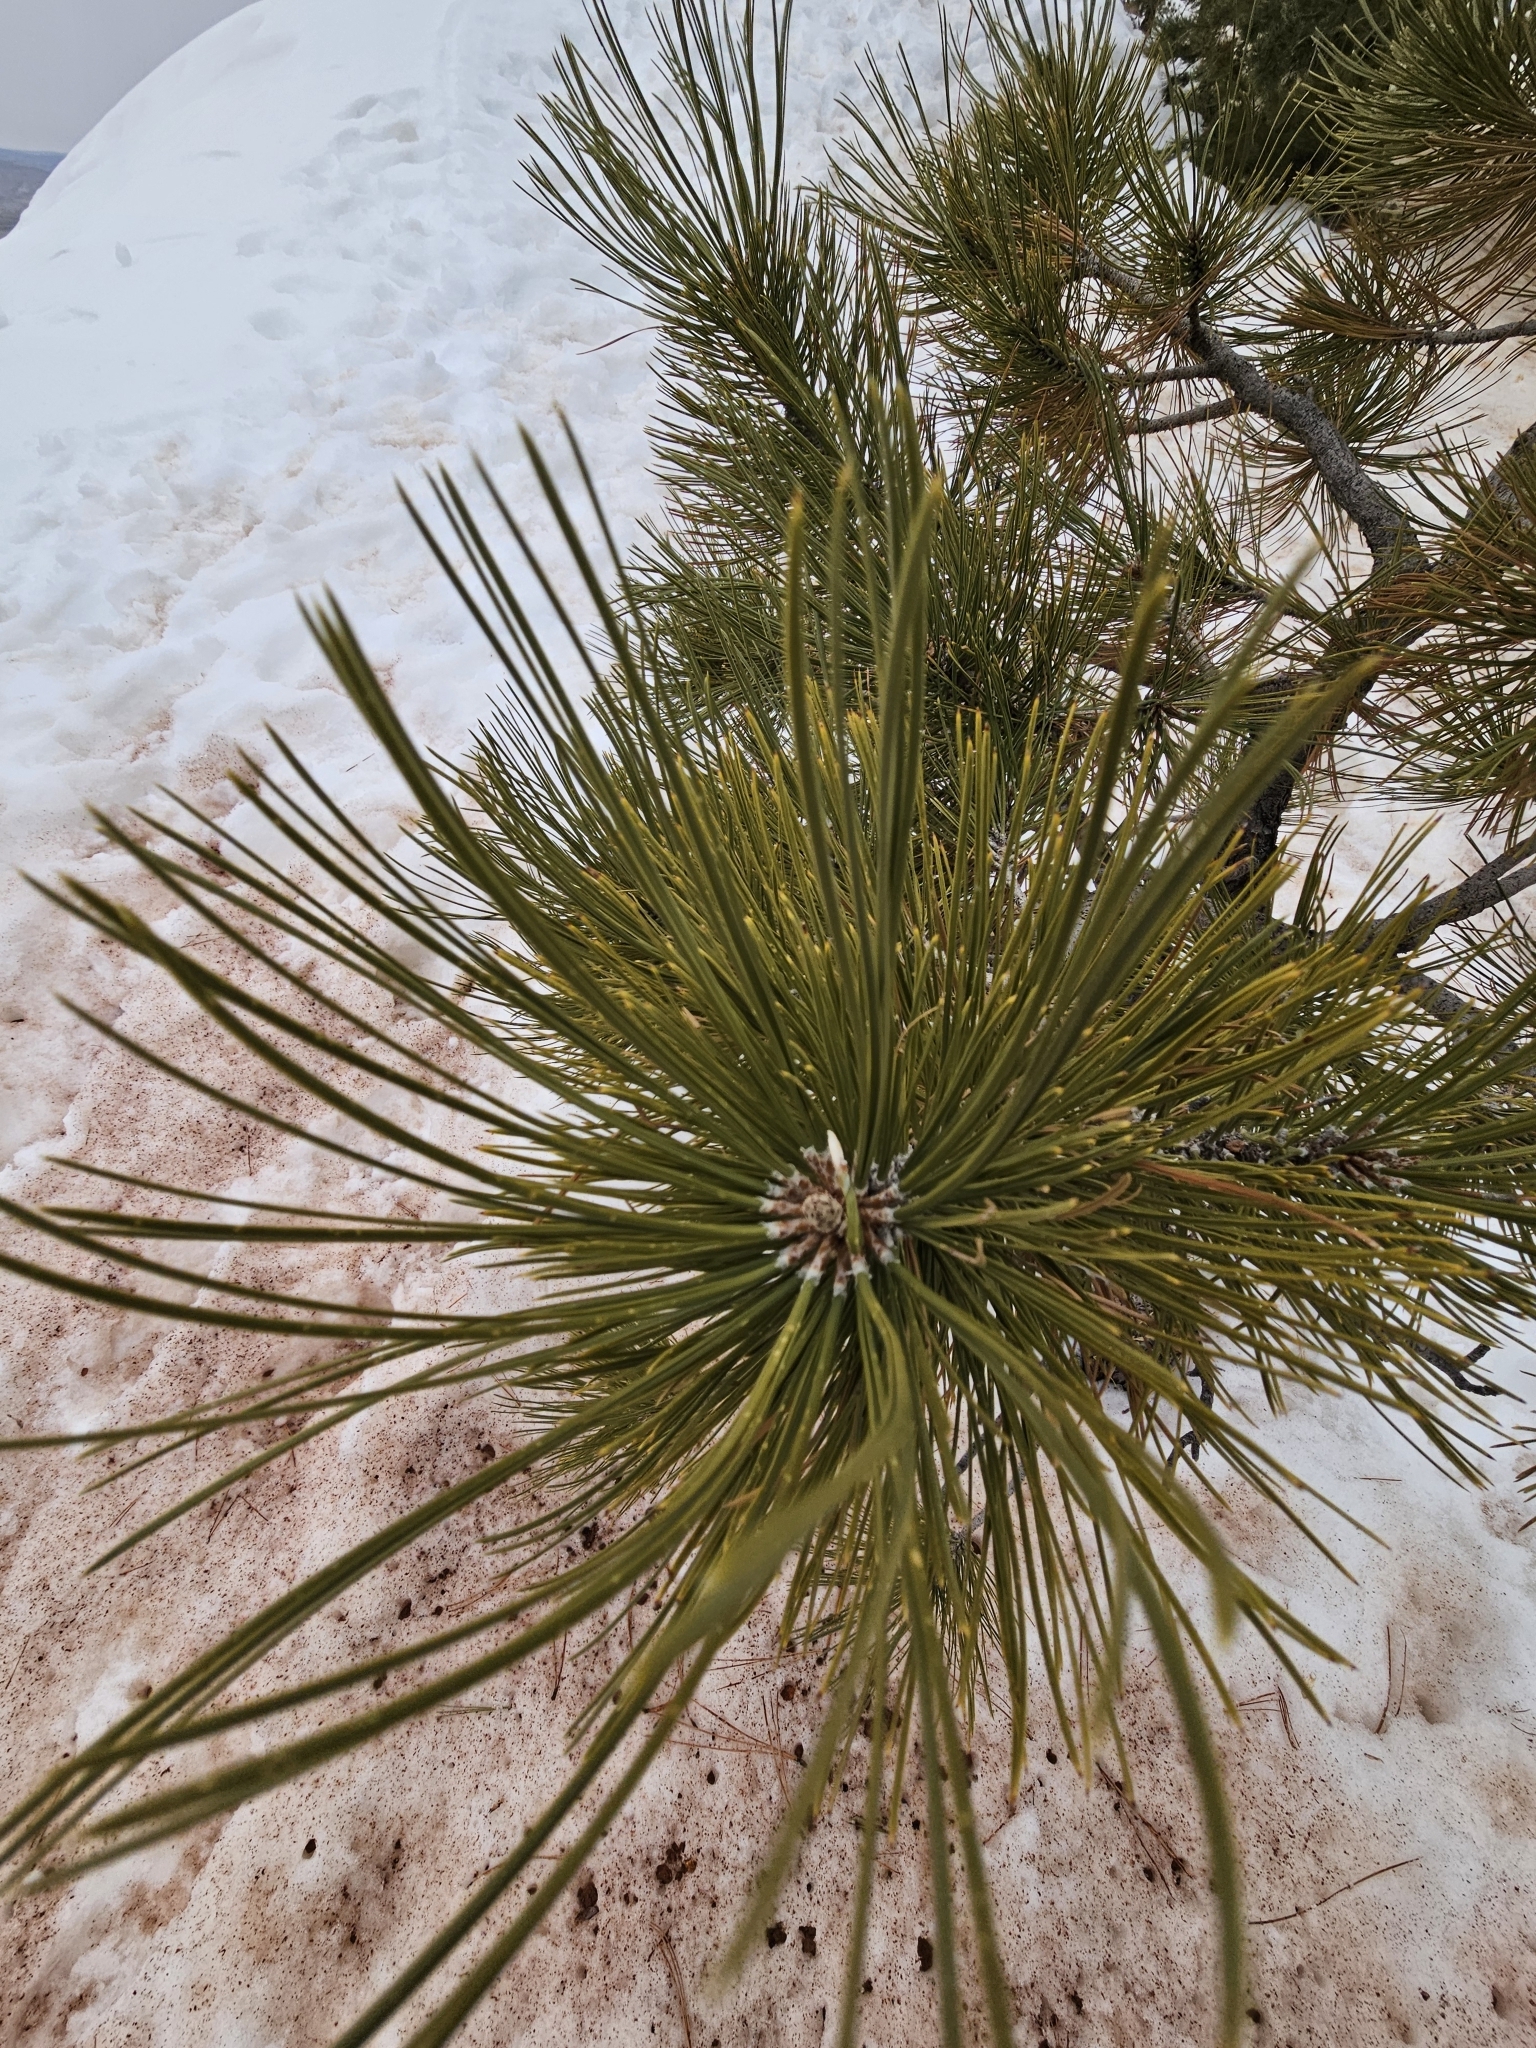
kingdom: Plantae
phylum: Tracheophyta
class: Pinopsida
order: Pinales
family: Pinaceae
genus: Pinus
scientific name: Pinus ponderosa
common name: Western yellow-pine
